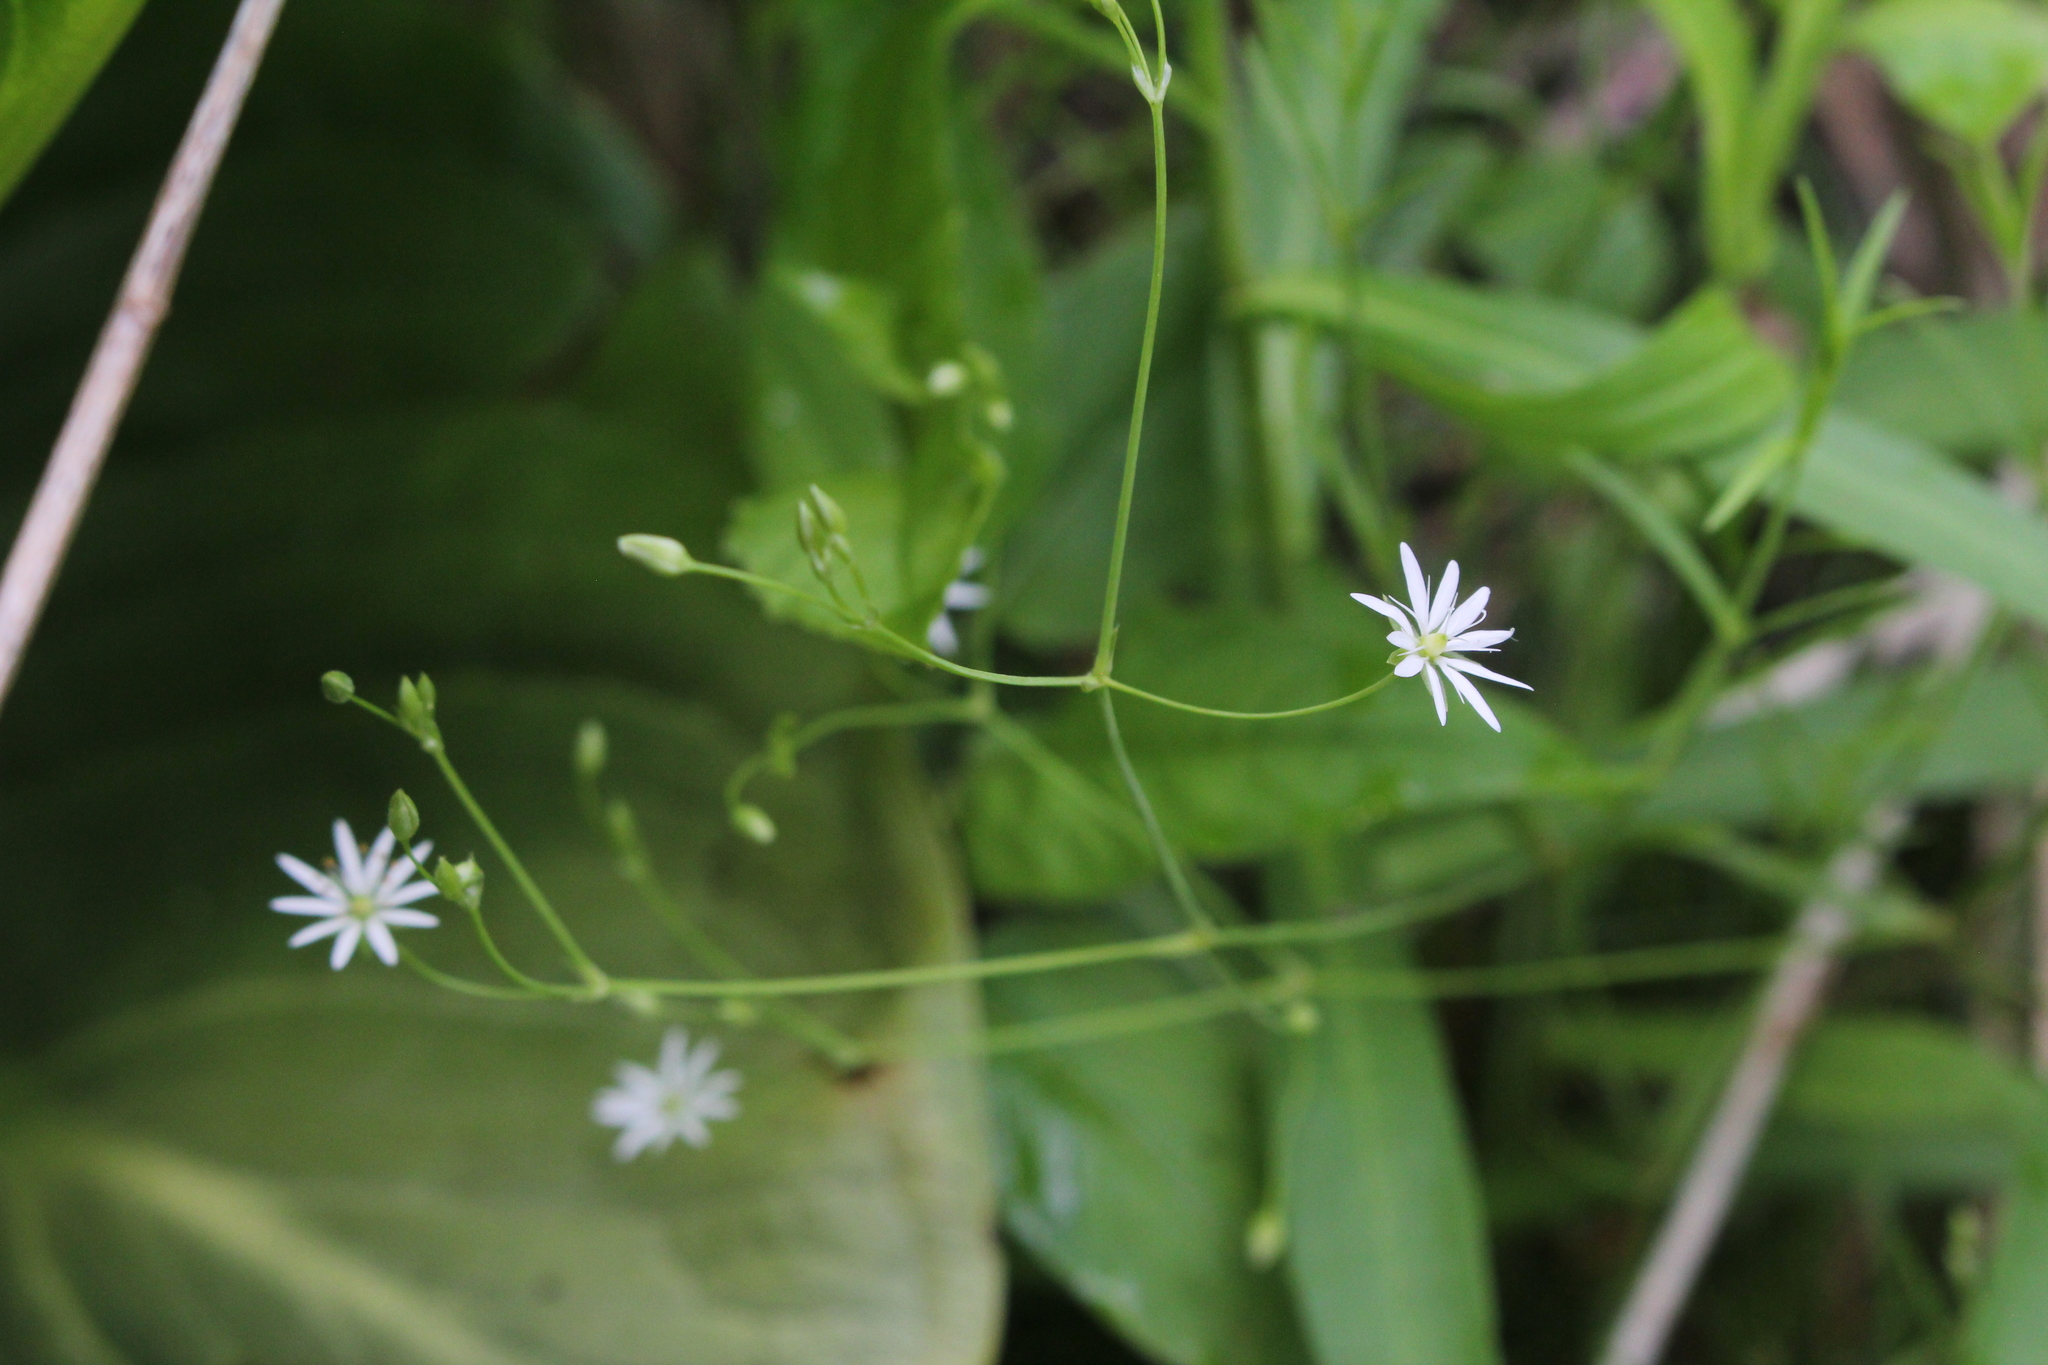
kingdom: Plantae
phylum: Tracheophyta
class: Magnoliopsida
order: Caryophyllales
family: Caryophyllaceae
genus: Stellaria
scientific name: Stellaria longifolia
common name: Long-leaved chickweed
